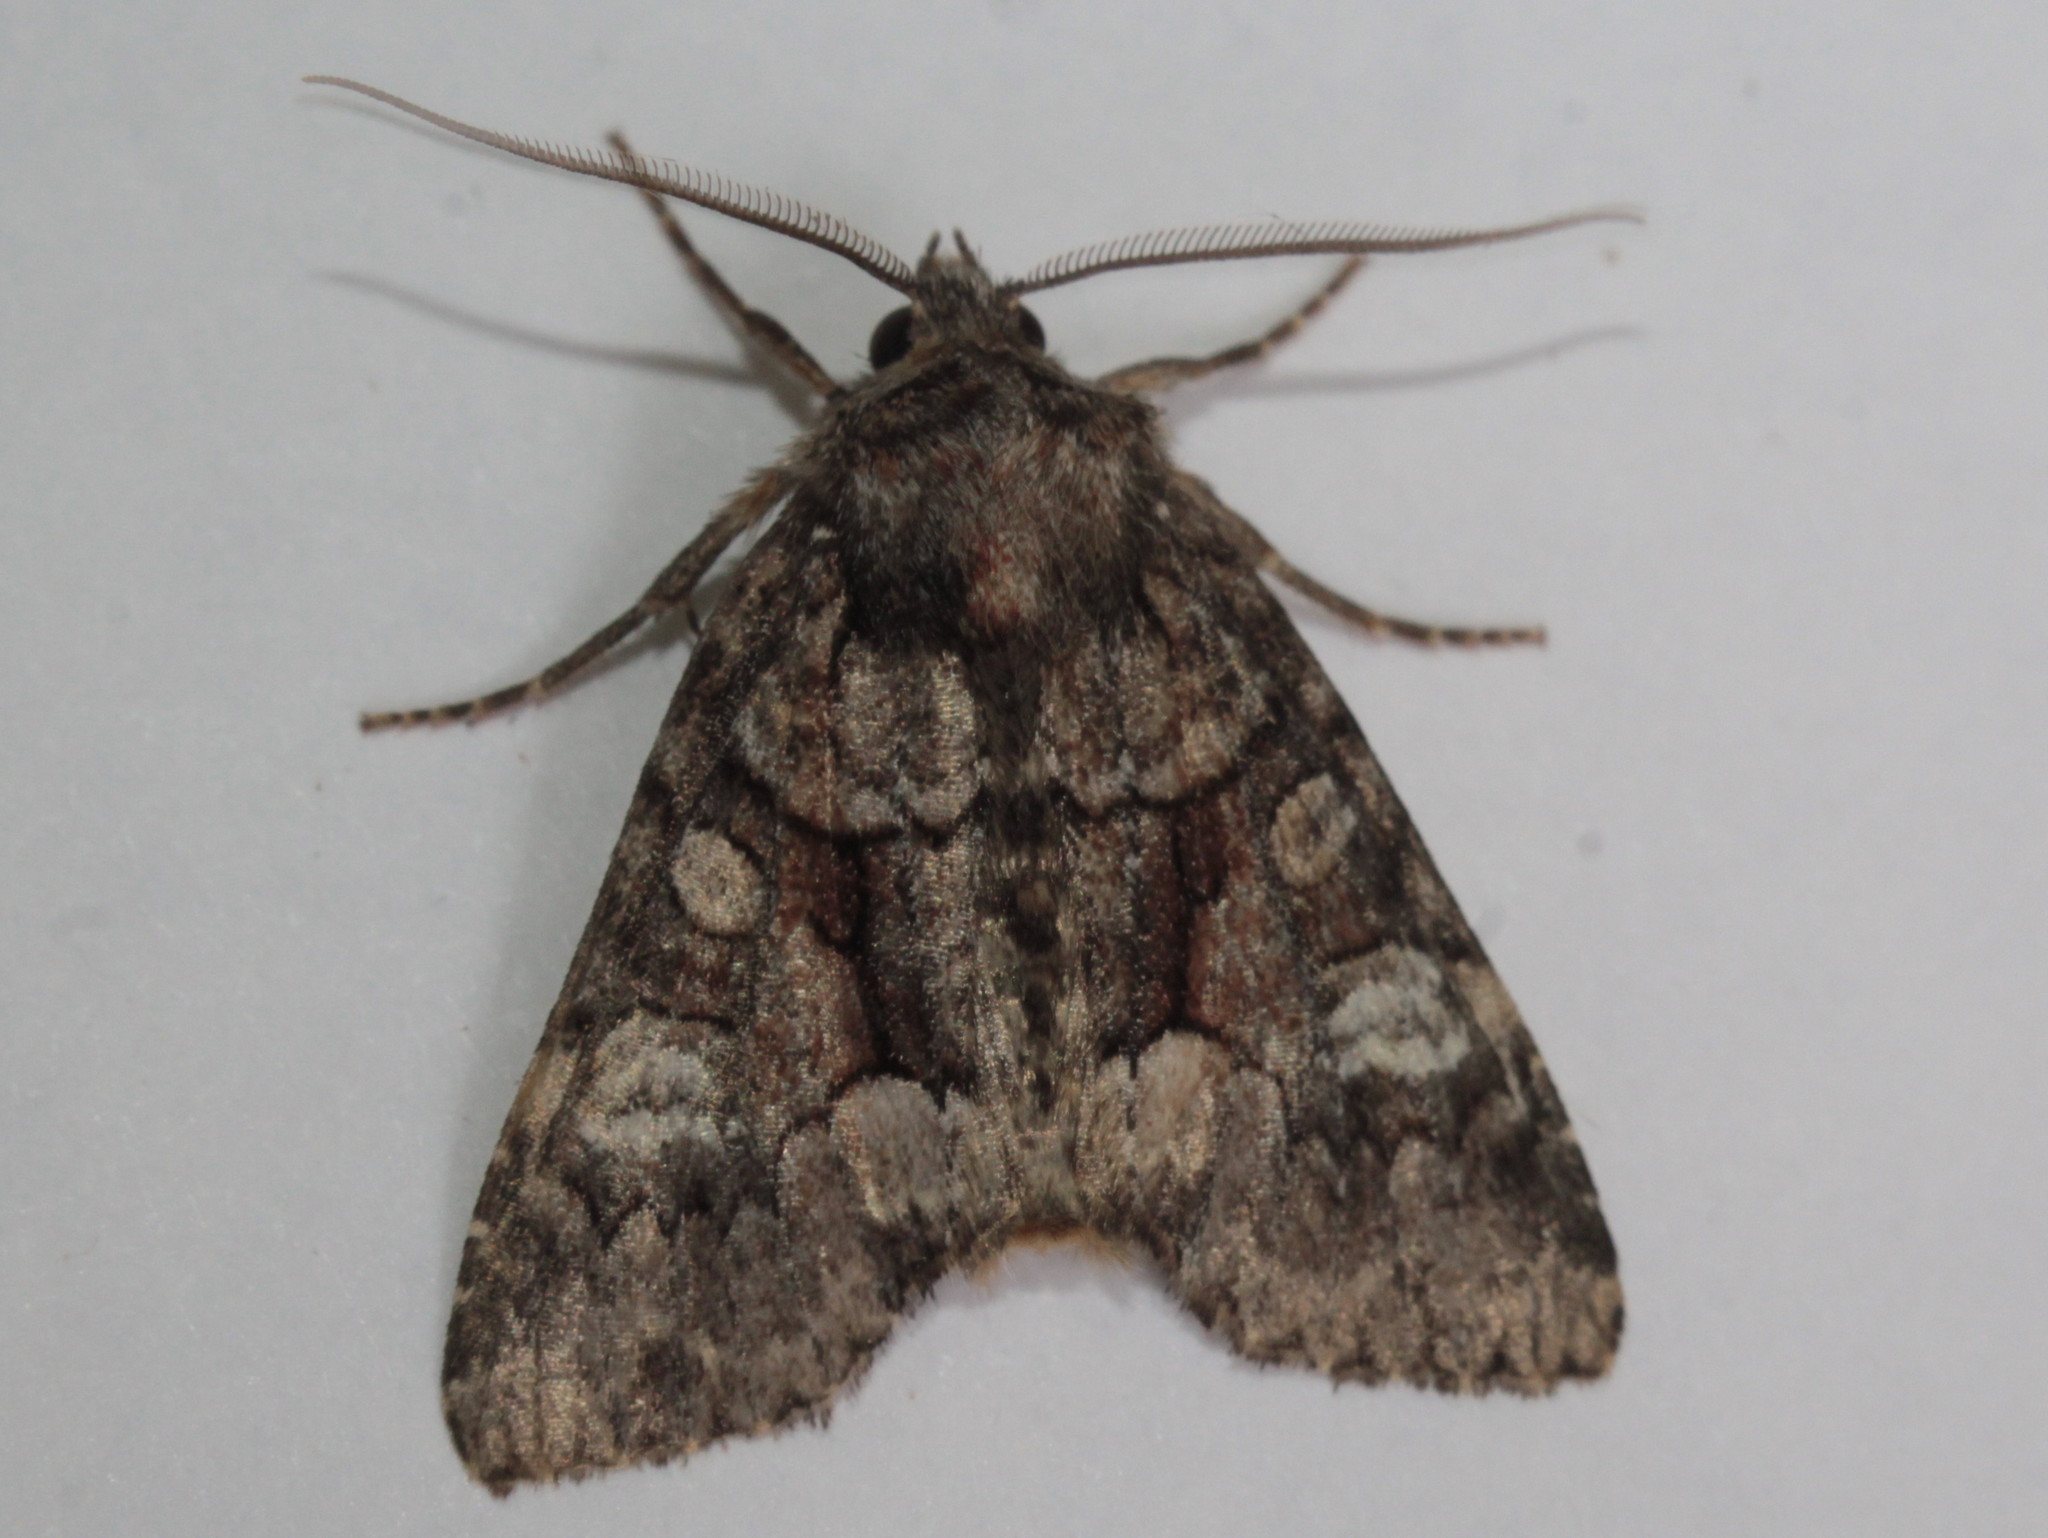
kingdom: Animalia
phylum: Arthropoda
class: Insecta
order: Lepidoptera
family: Noctuidae
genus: Fishia
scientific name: Fishia illocata
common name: Wandering brocade moth
